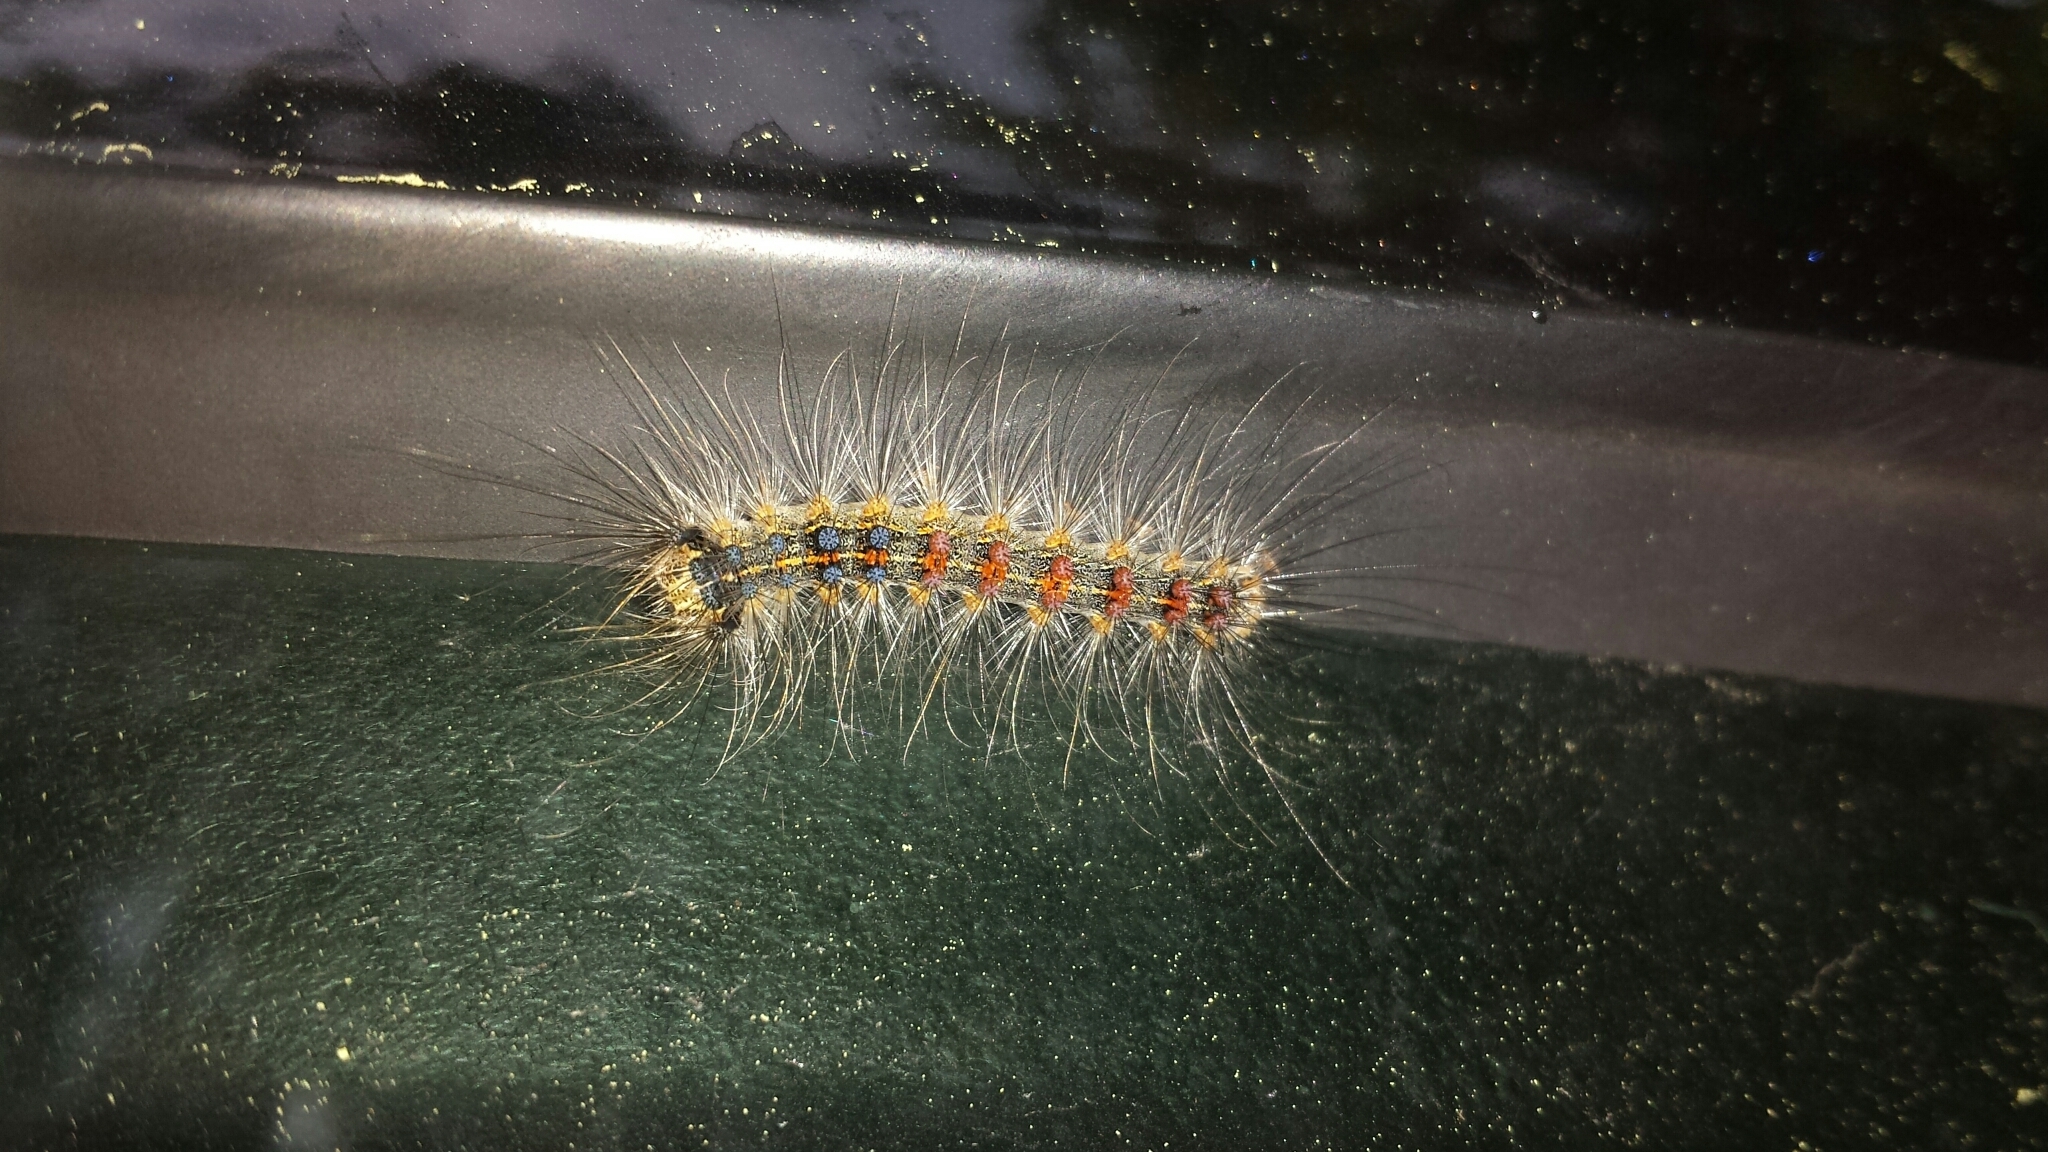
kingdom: Animalia
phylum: Arthropoda
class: Insecta
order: Lepidoptera
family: Erebidae
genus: Lymantria
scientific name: Lymantria dispar
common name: Gypsy moth
